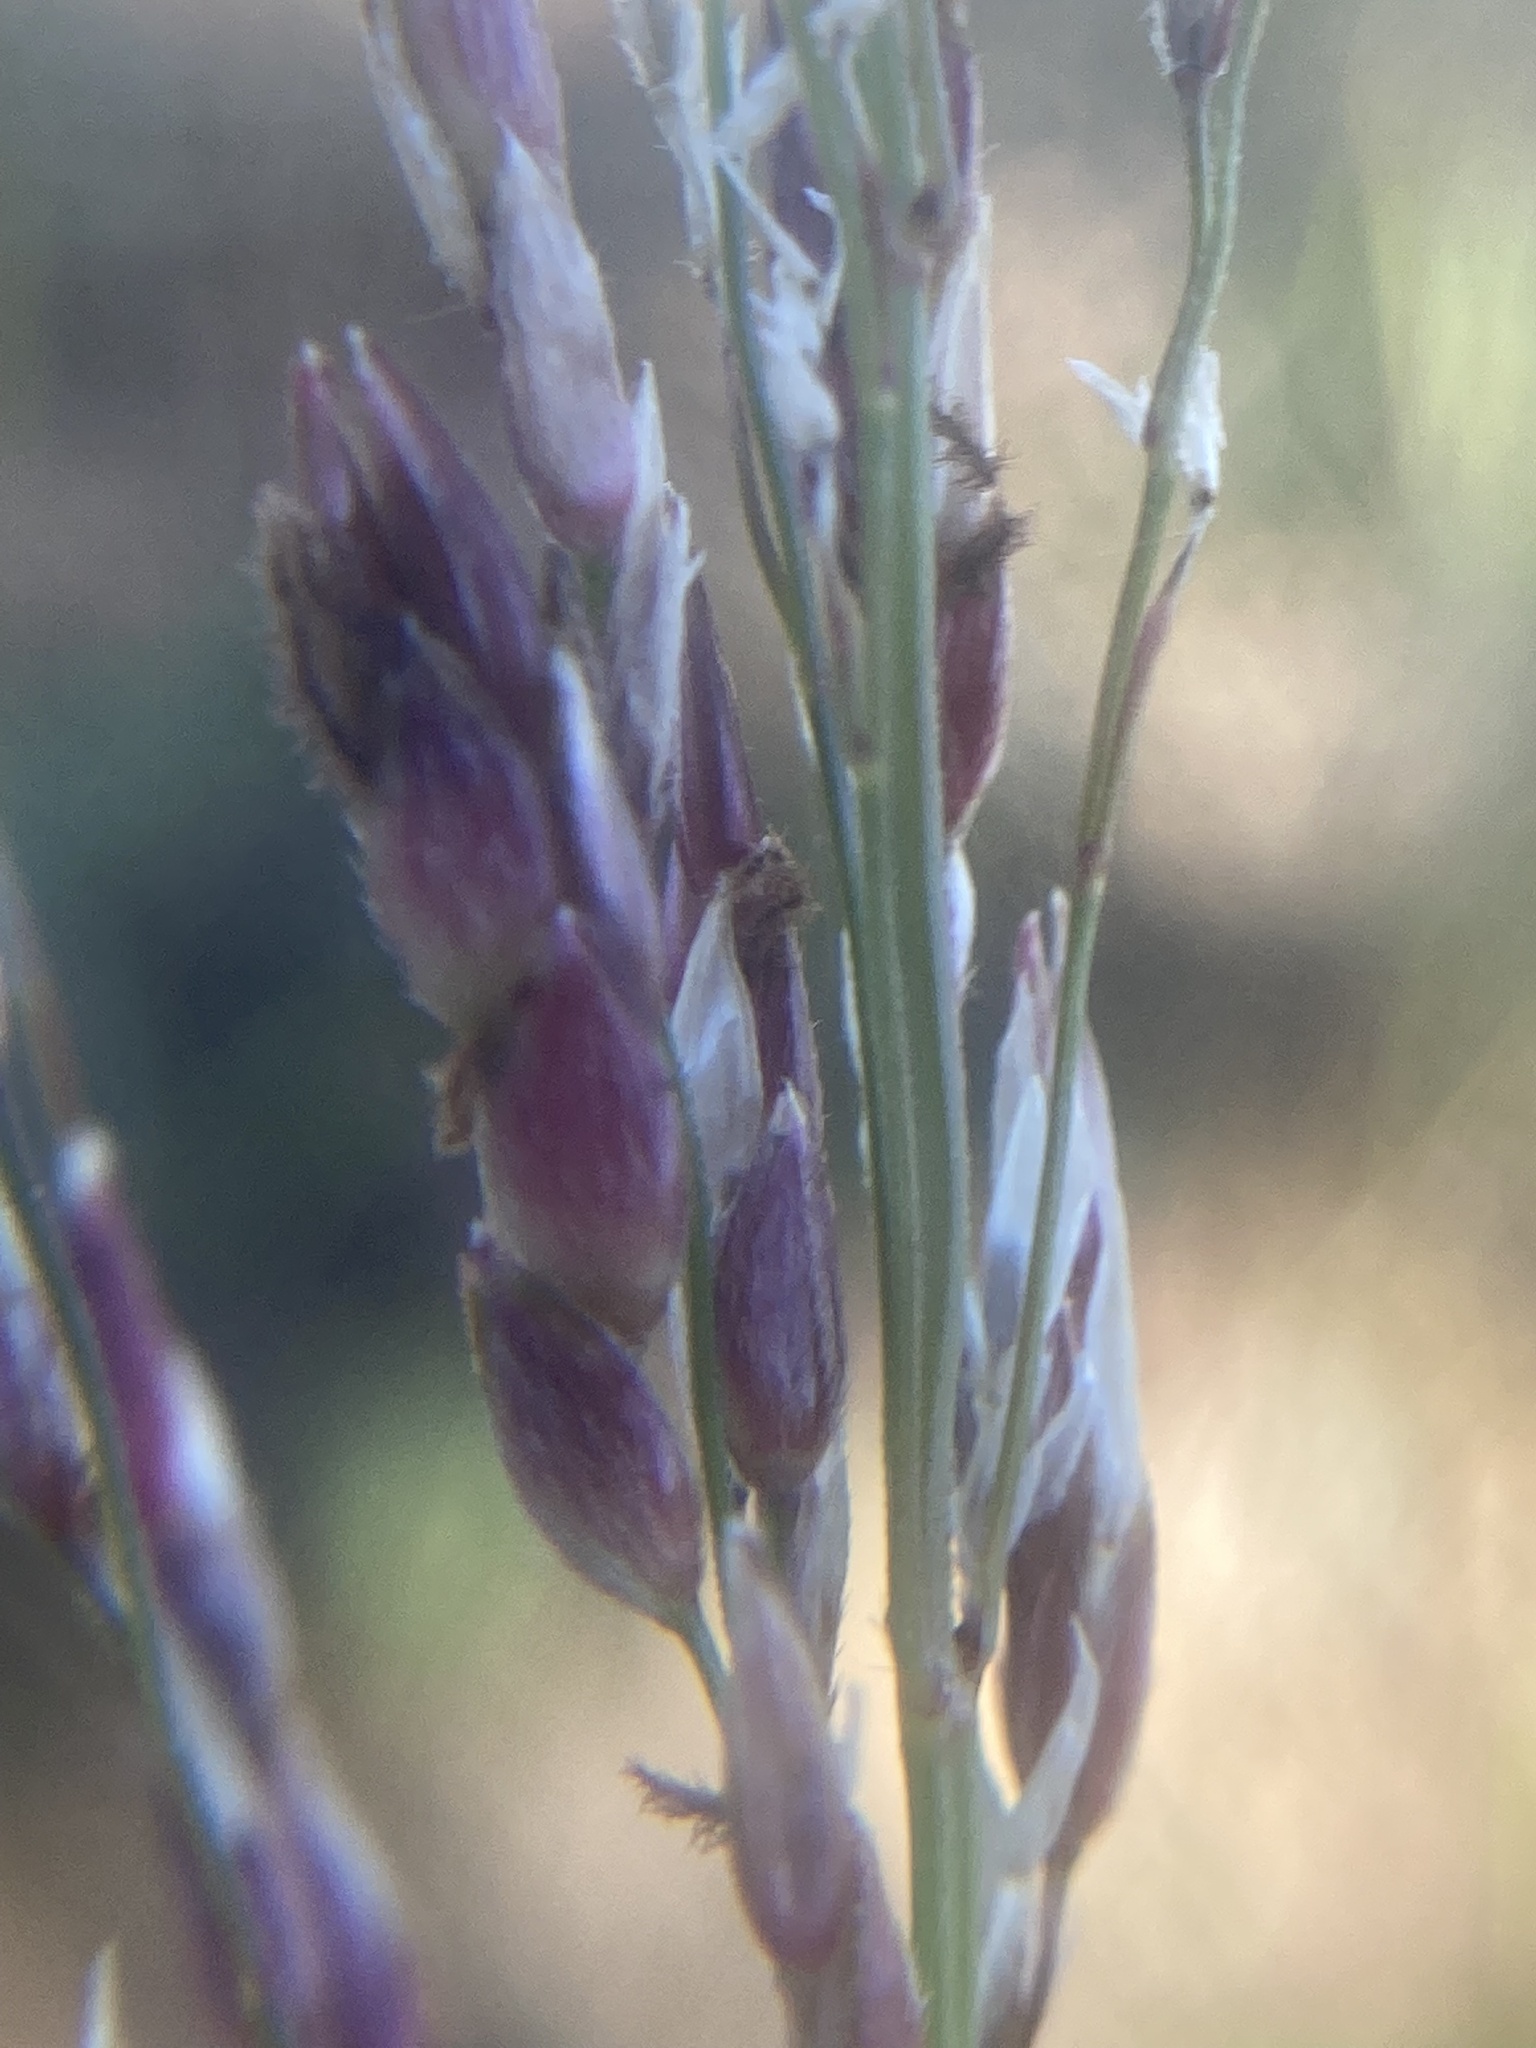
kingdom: Plantae
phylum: Tracheophyta
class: Liliopsida
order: Poales
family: Poaceae
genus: Sorghum
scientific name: Sorghum halepense
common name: Johnson-grass
